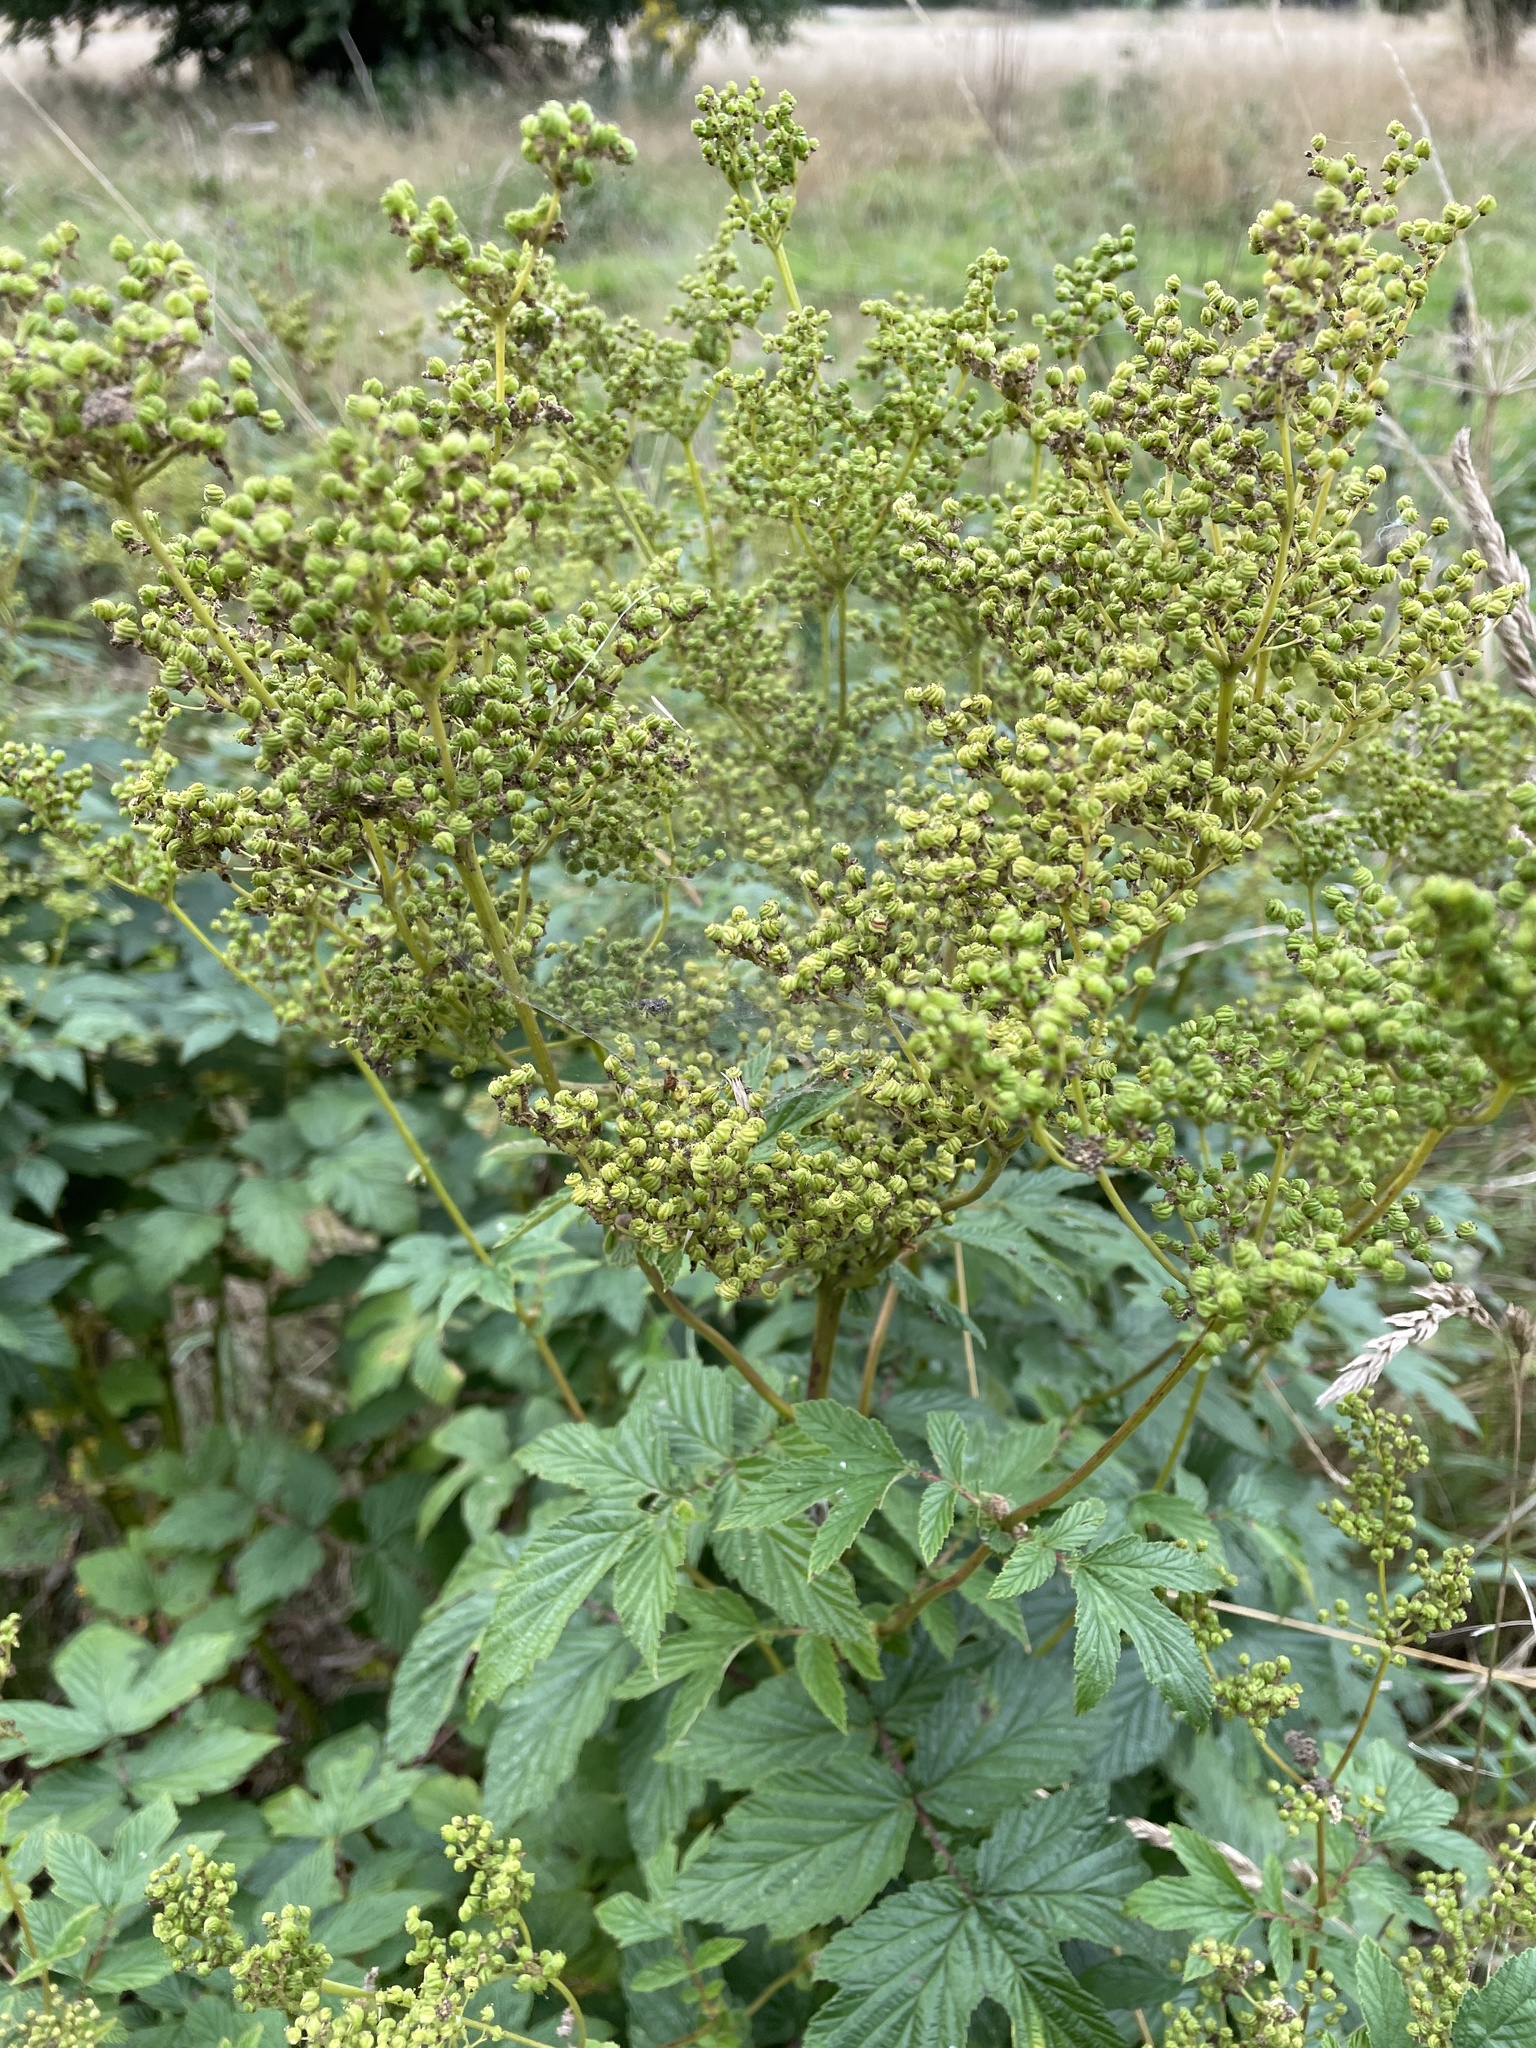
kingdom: Plantae
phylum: Tracheophyta
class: Magnoliopsida
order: Rosales
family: Rosaceae
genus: Filipendula
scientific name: Filipendula ulmaria
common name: Meadowsweet
